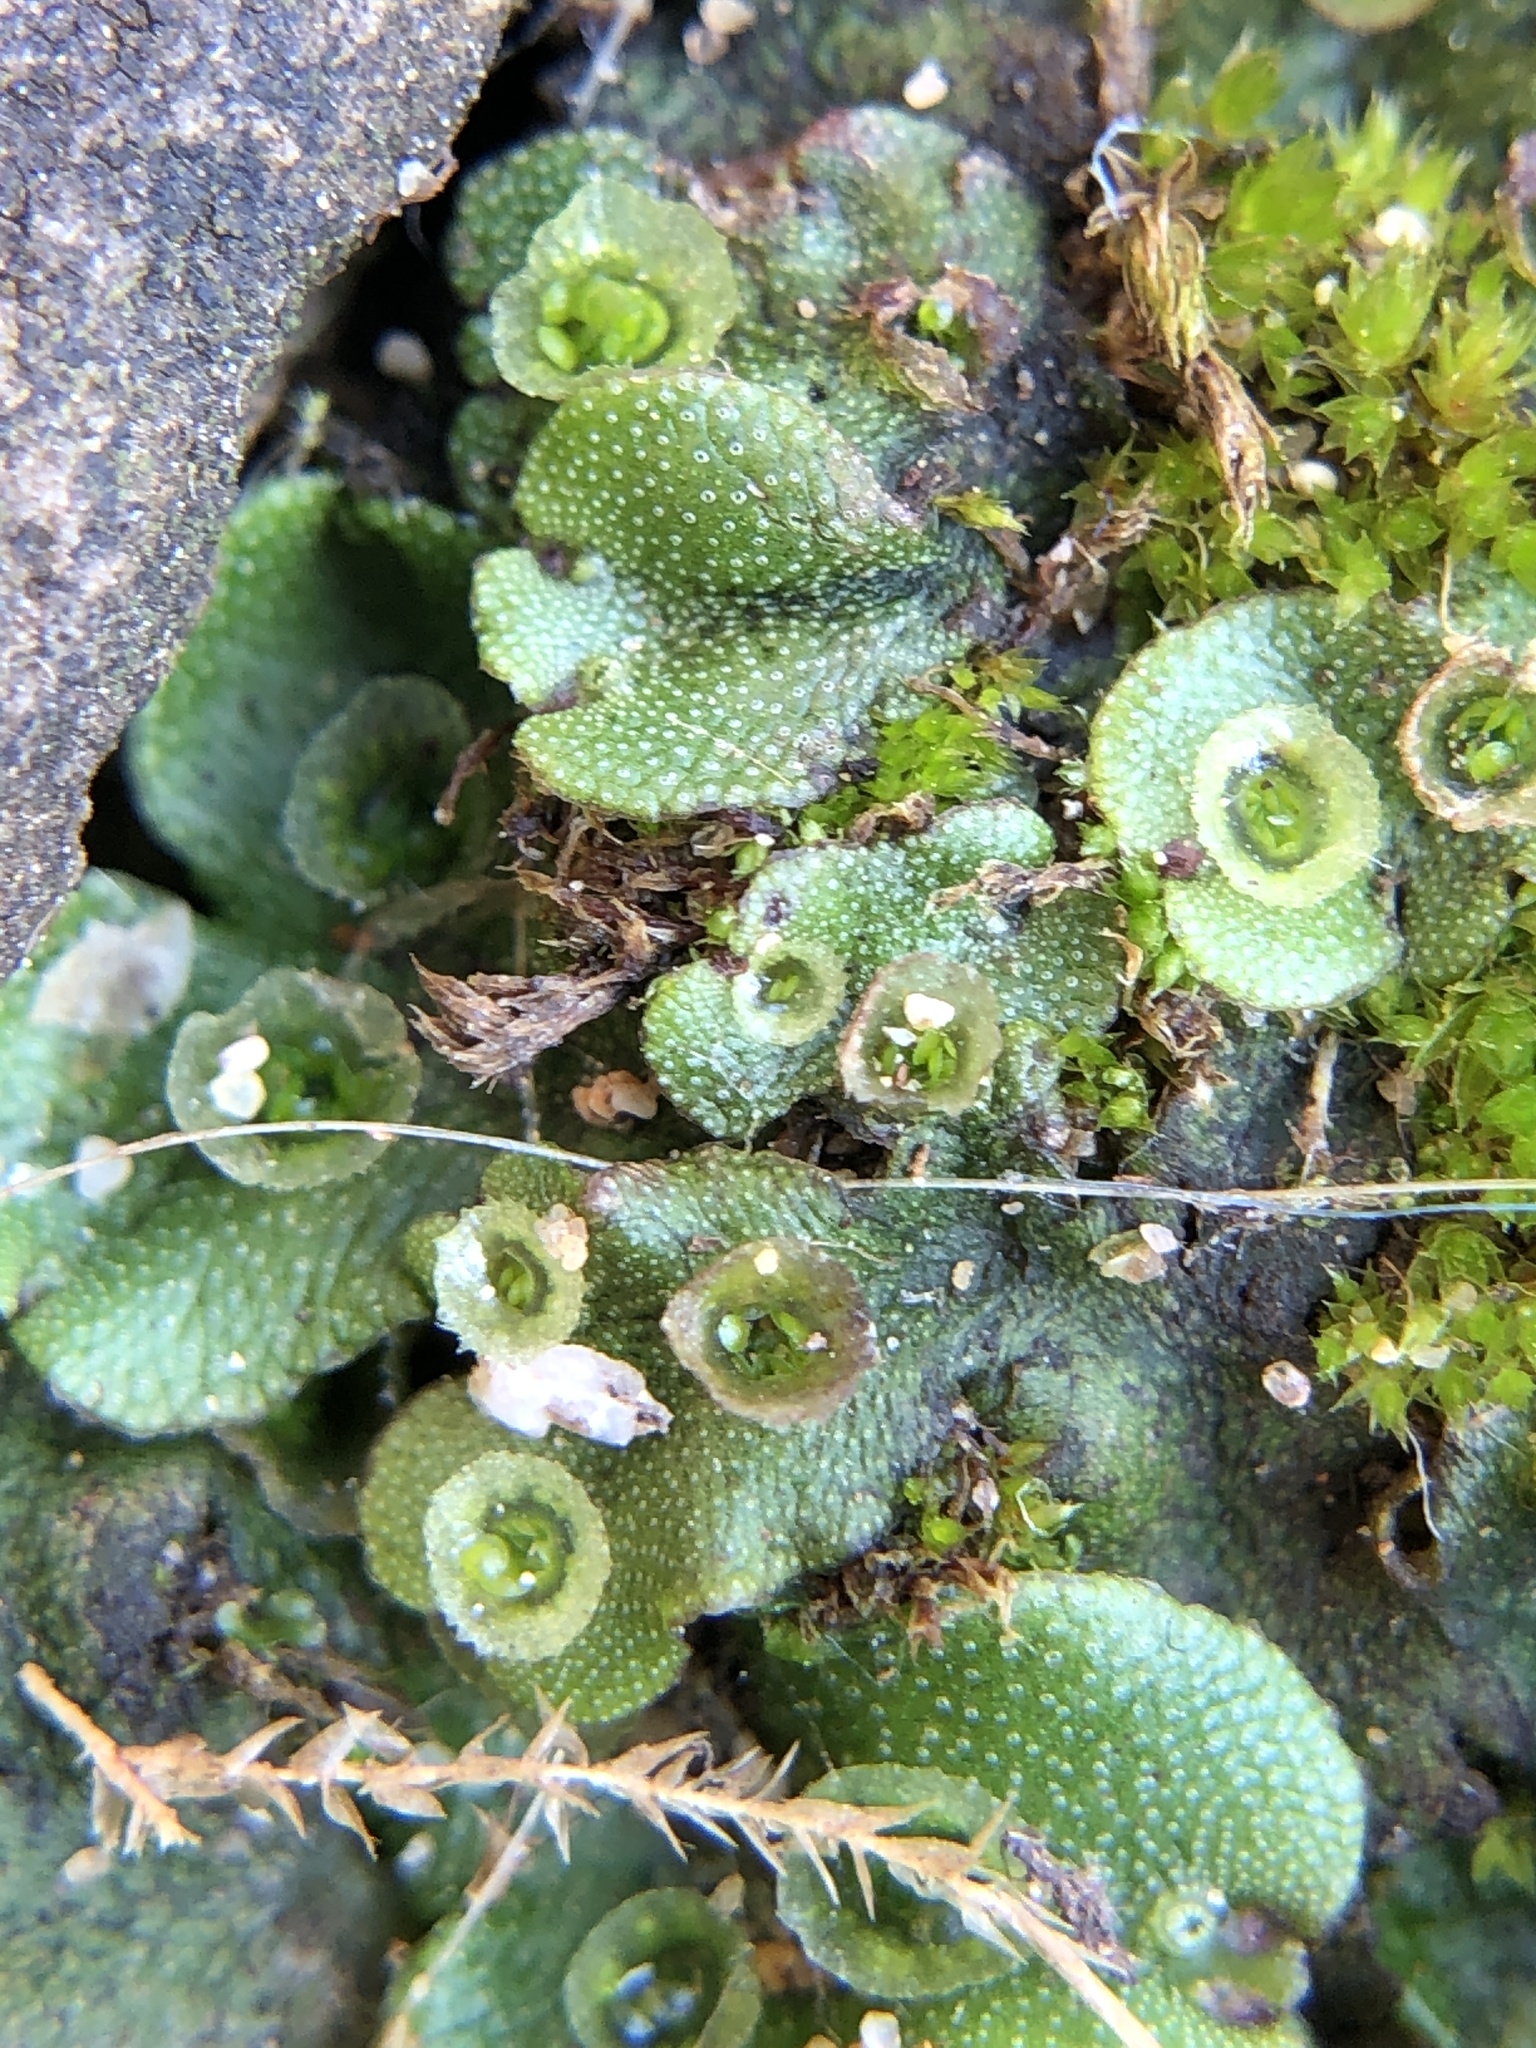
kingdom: Plantae
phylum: Marchantiophyta
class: Marchantiopsida
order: Marchantiales
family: Marchantiaceae
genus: Marchantia
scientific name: Marchantia polymorpha
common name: Common liverwort
